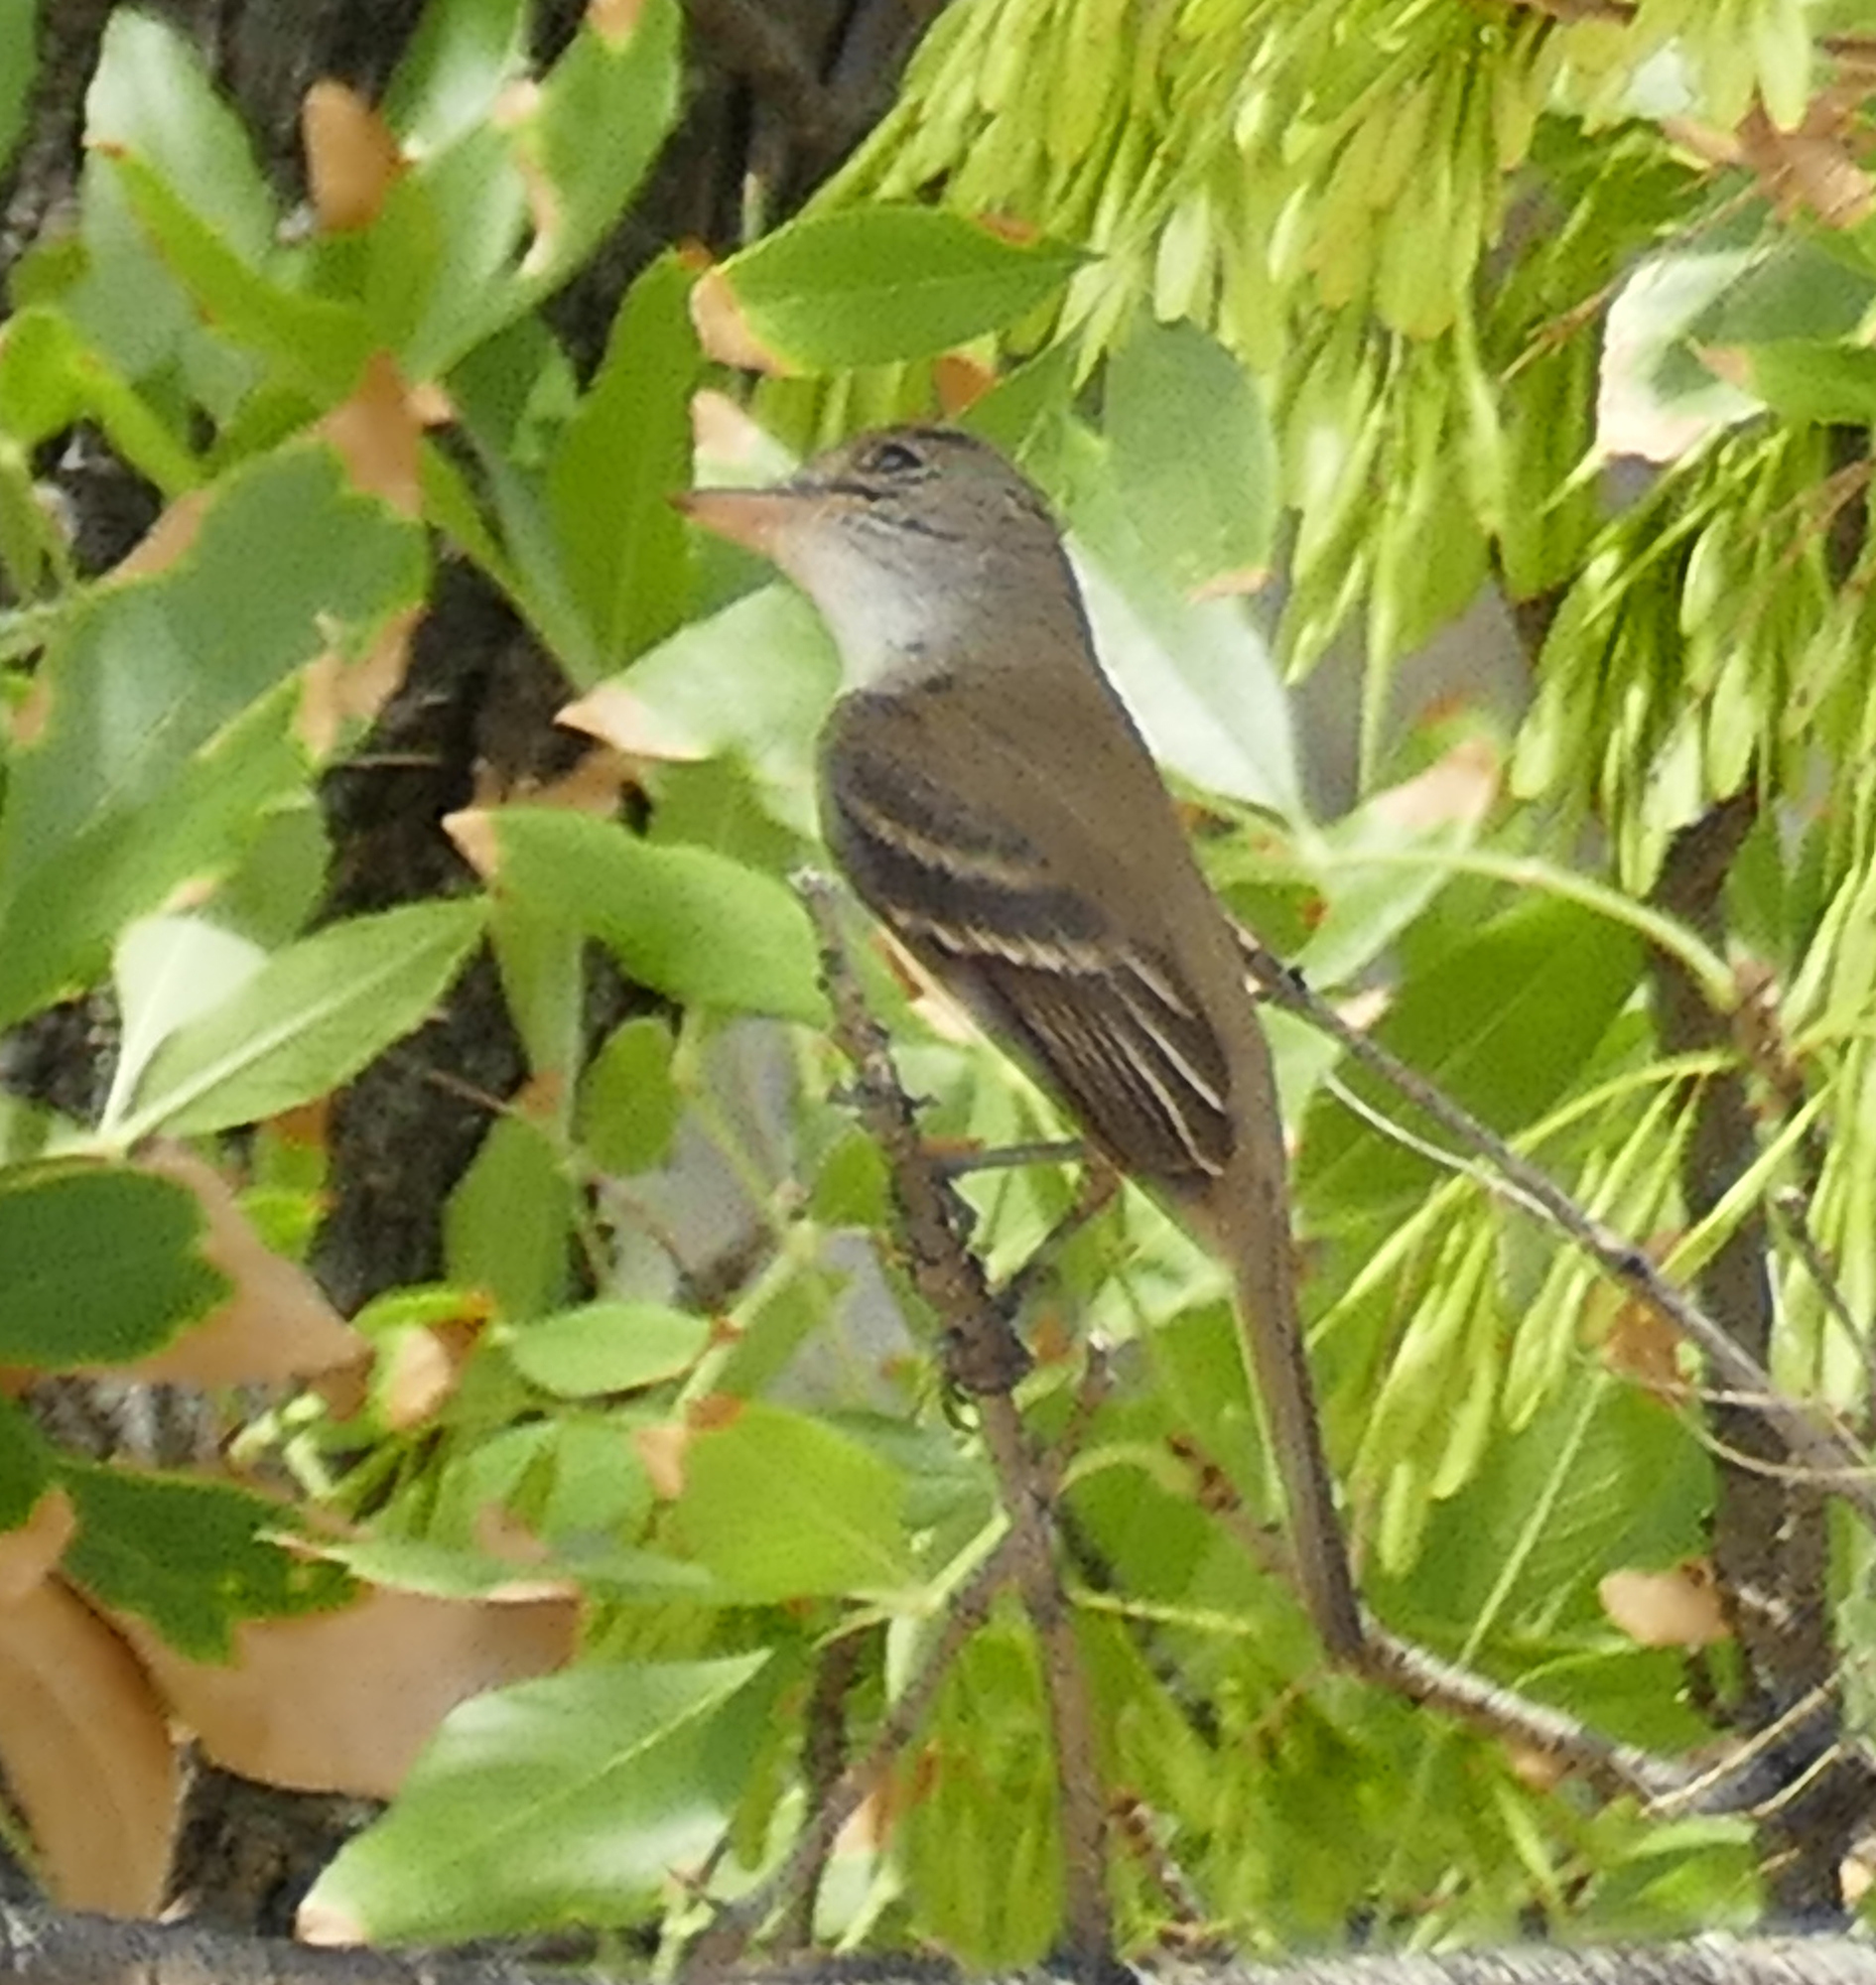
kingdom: Animalia
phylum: Chordata
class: Aves
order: Passeriformes
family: Tyrannidae
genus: Empidonax
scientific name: Empidonax traillii
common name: Willow flycatcher
